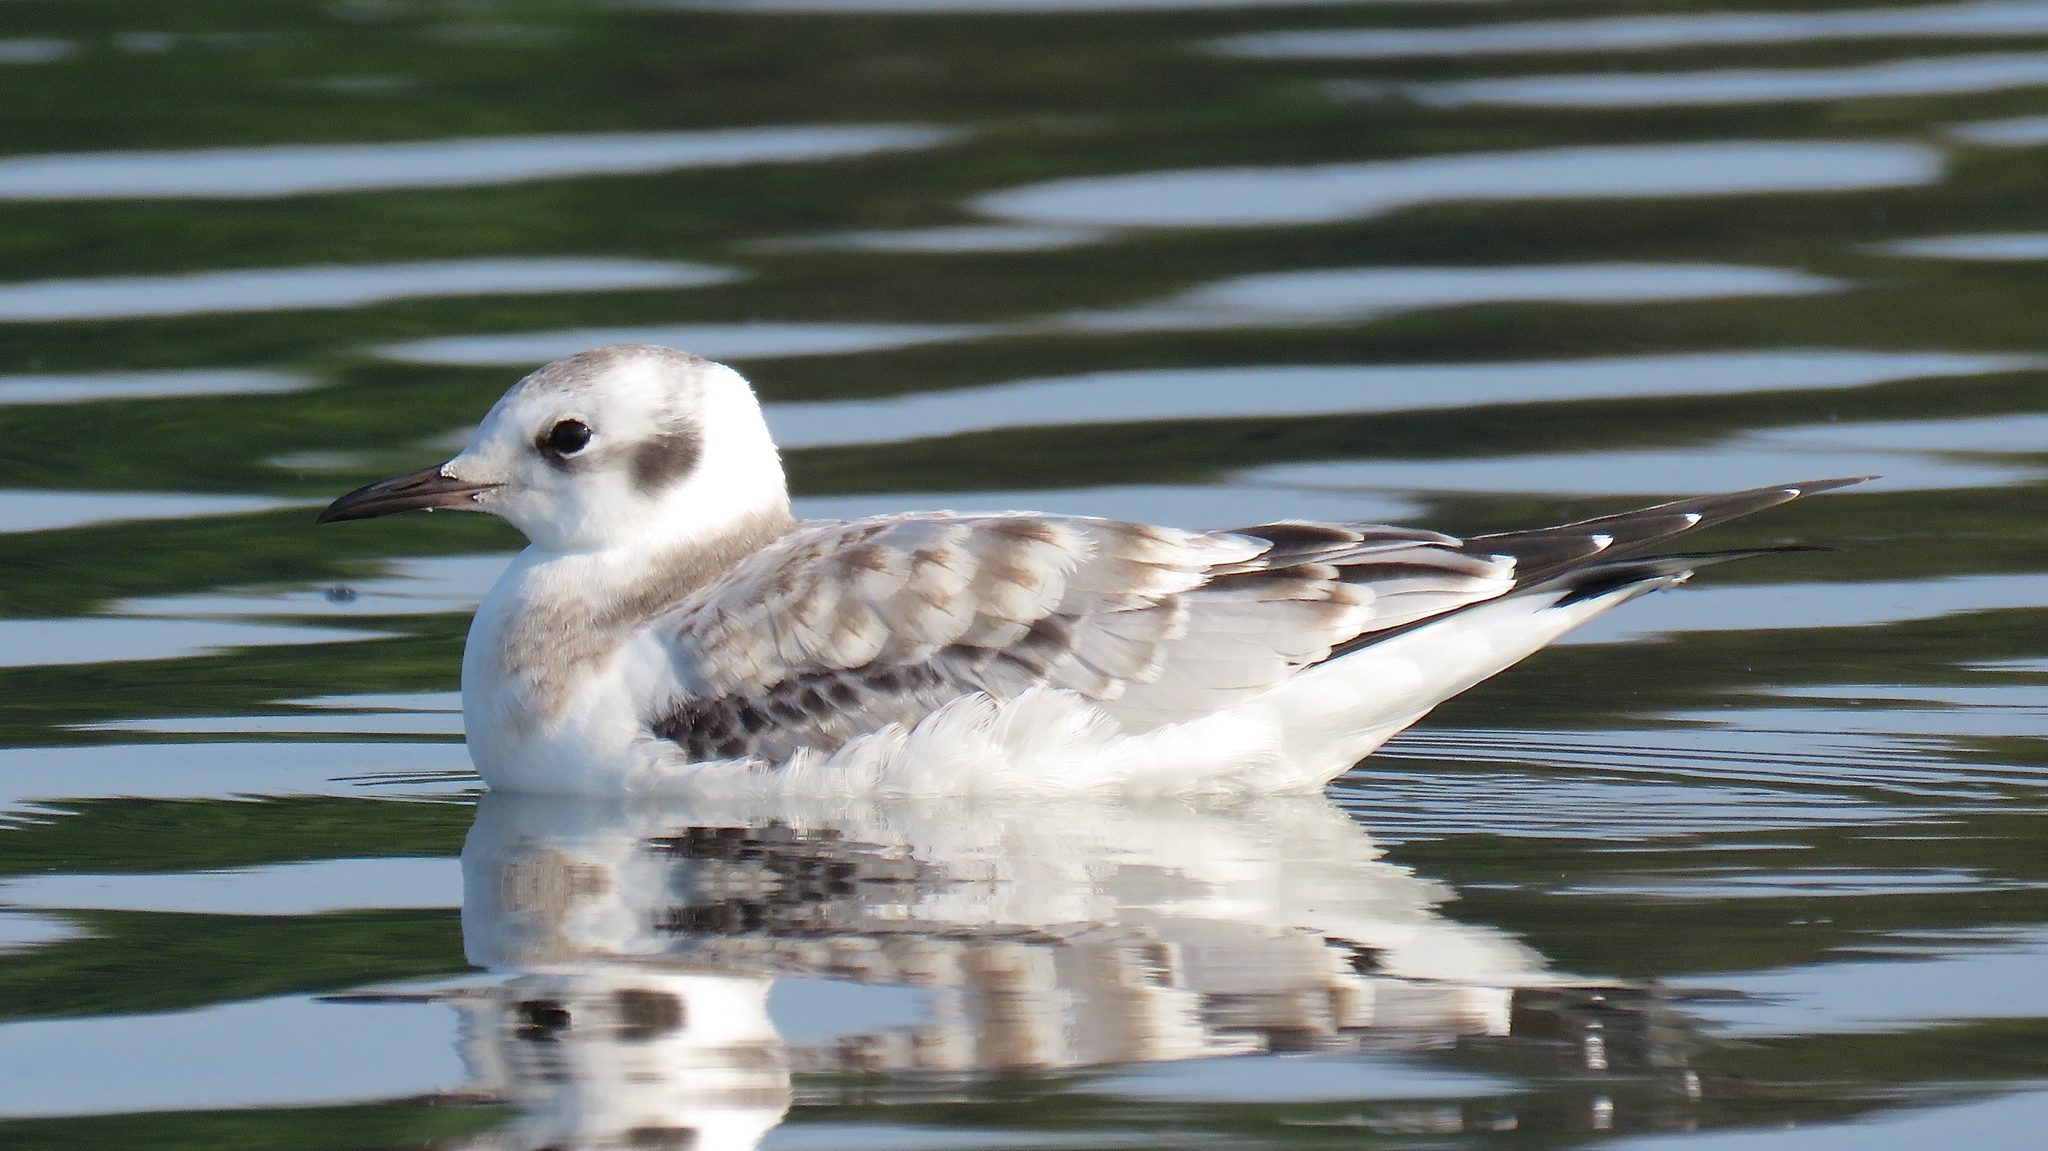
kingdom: Animalia
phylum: Chordata
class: Aves
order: Charadriiformes
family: Laridae
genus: Chroicocephalus
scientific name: Chroicocephalus philadelphia
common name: Bonaparte's gull
